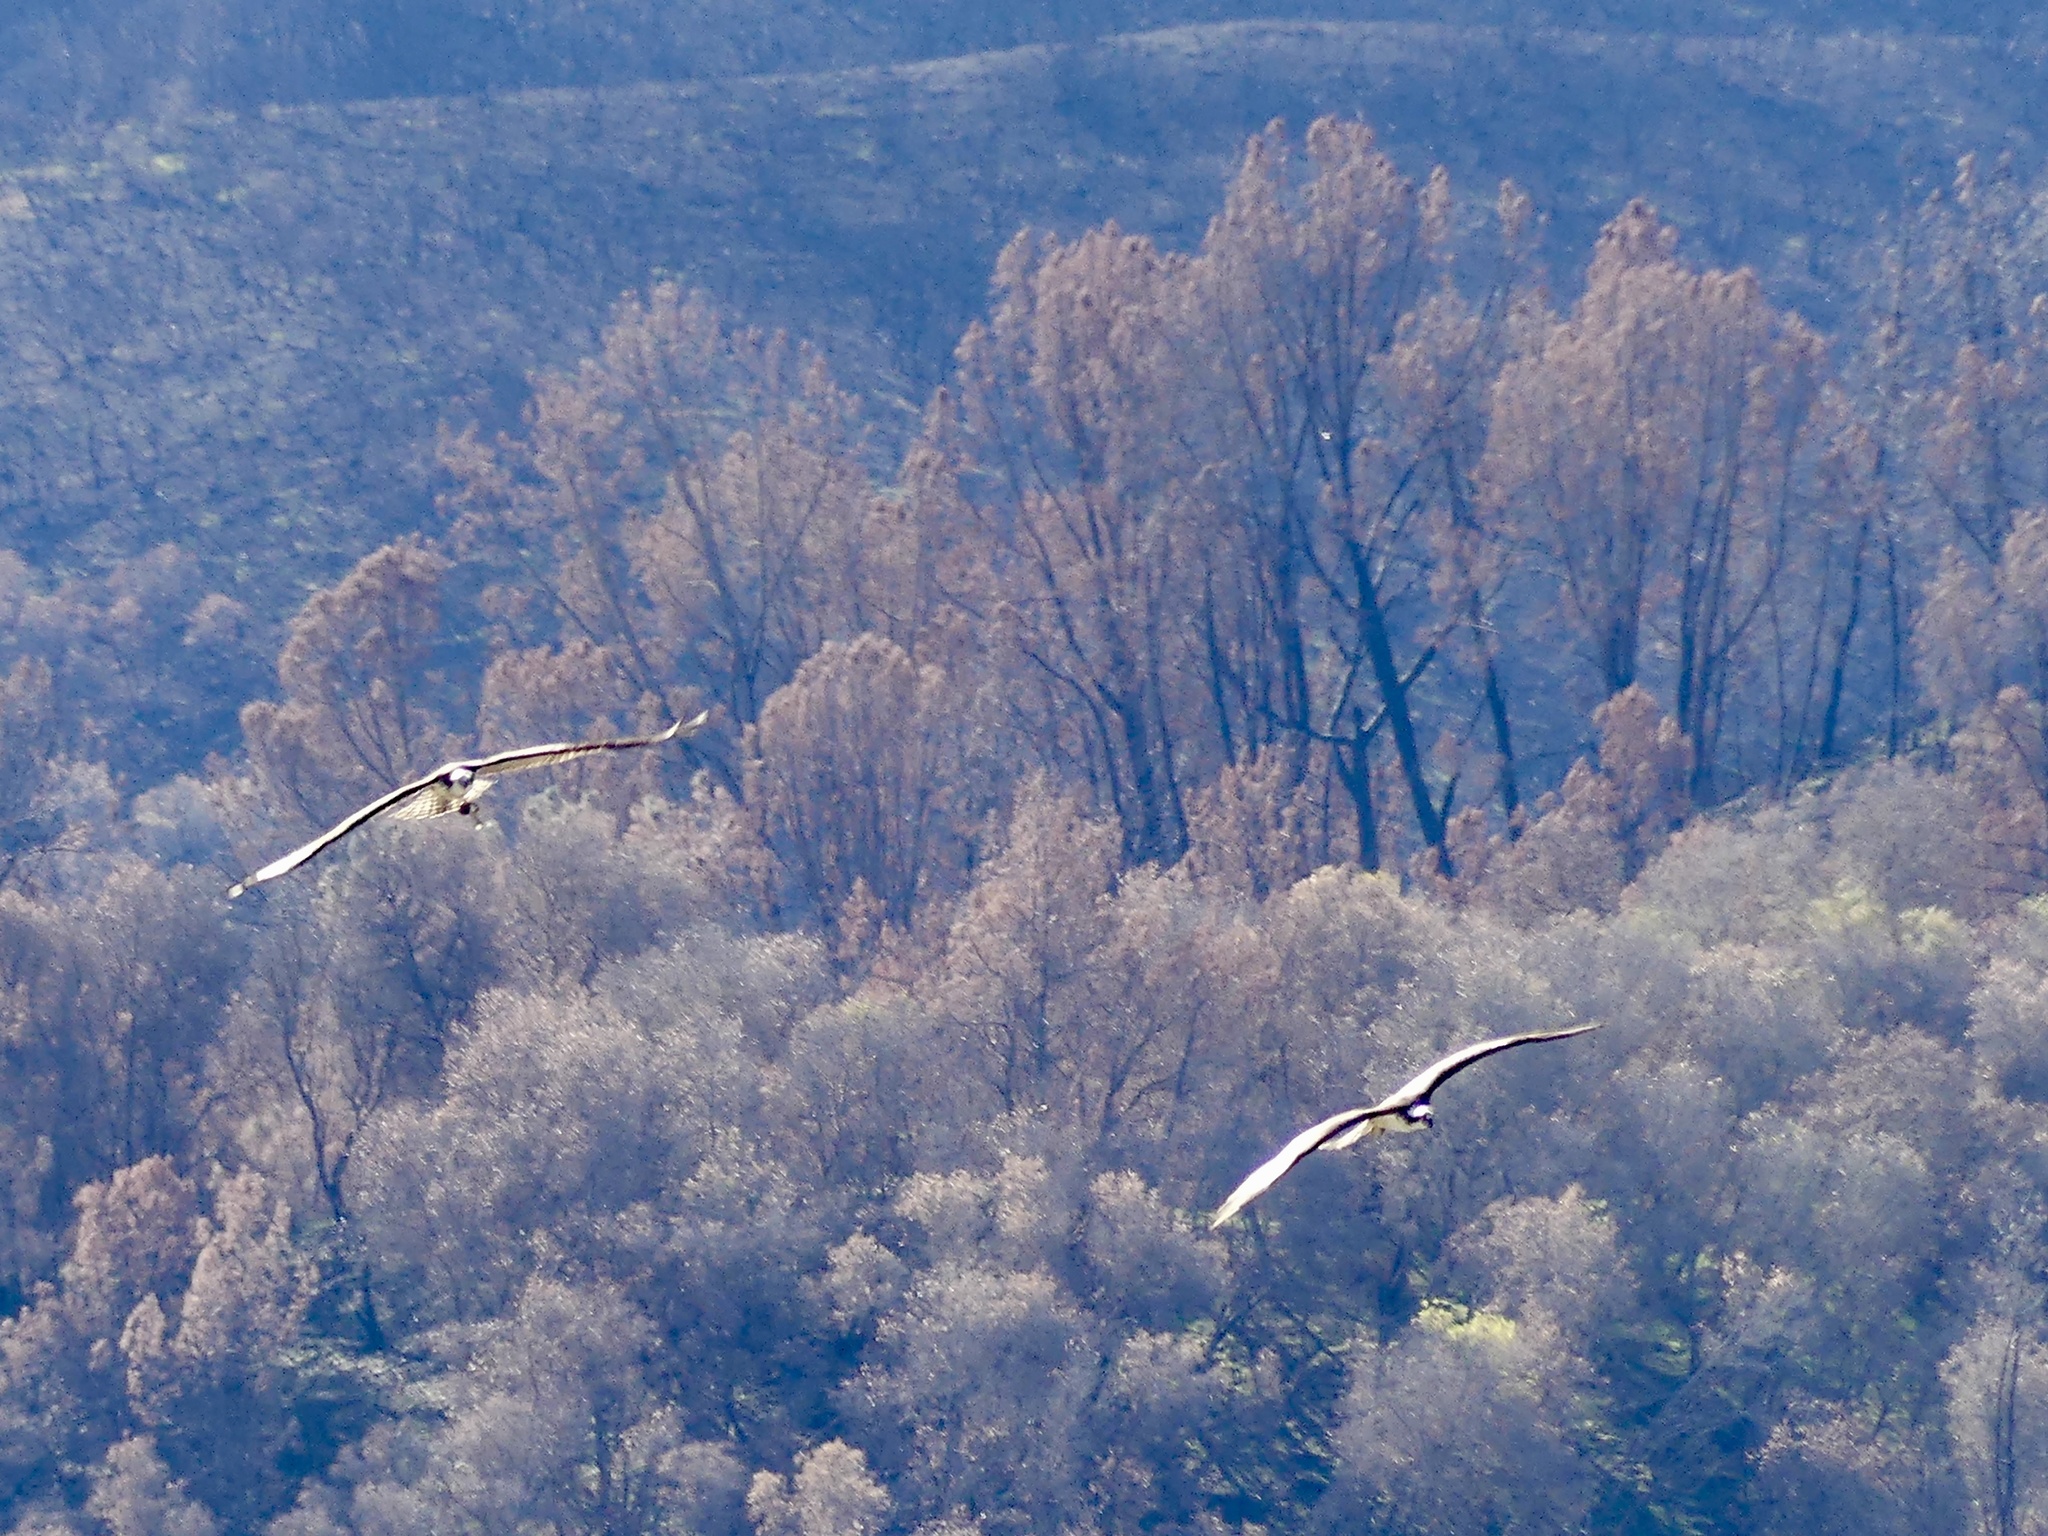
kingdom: Animalia
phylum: Chordata
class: Aves
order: Accipitriformes
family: Pandionidae
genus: Pandion
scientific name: Pandion haliaetus
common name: Osprey
